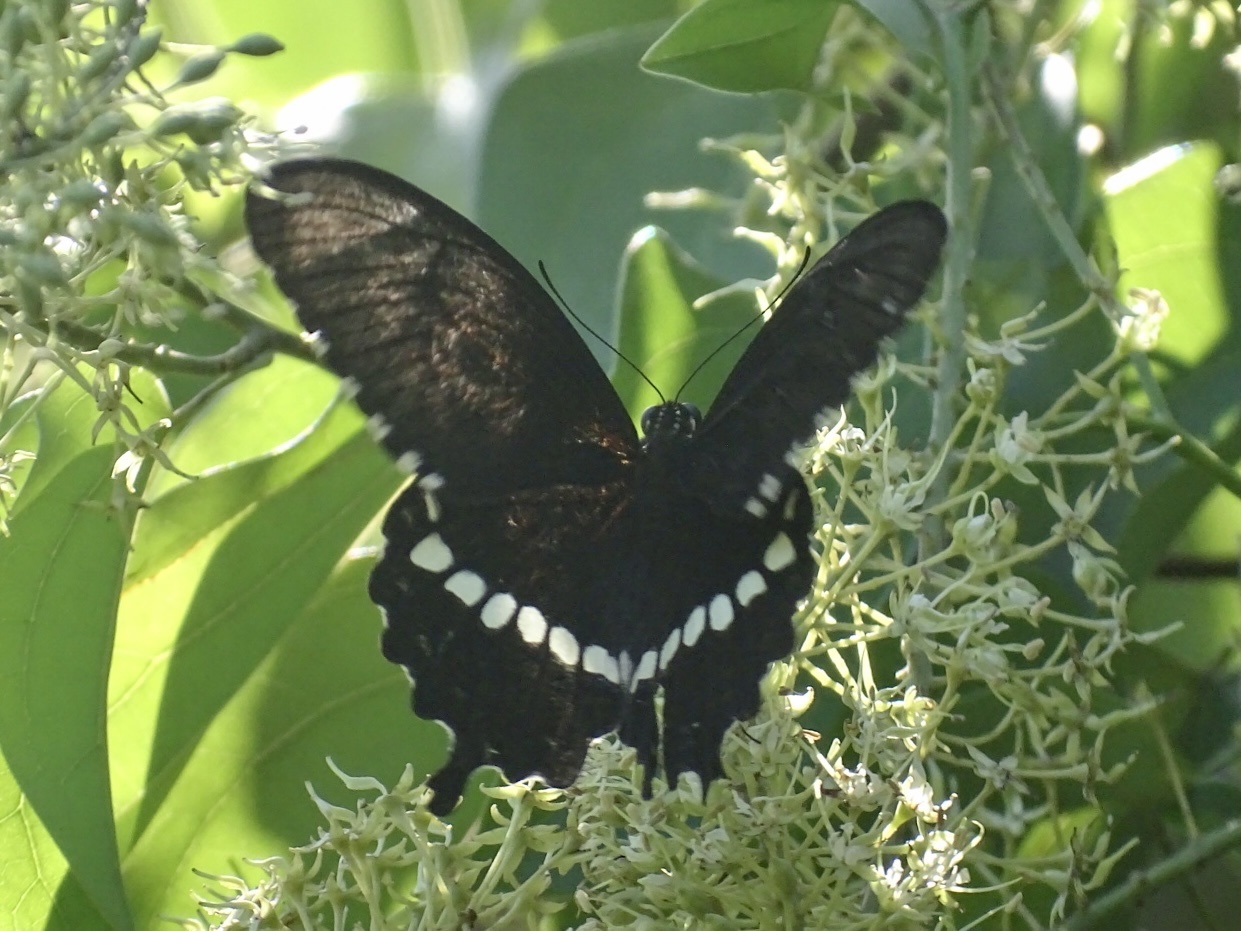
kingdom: Animalia
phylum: Arthropoda
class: Insecta
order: Lepidoptera
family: Papilionidae
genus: Papilio
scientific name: Papilio polytes
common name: Common mormon
